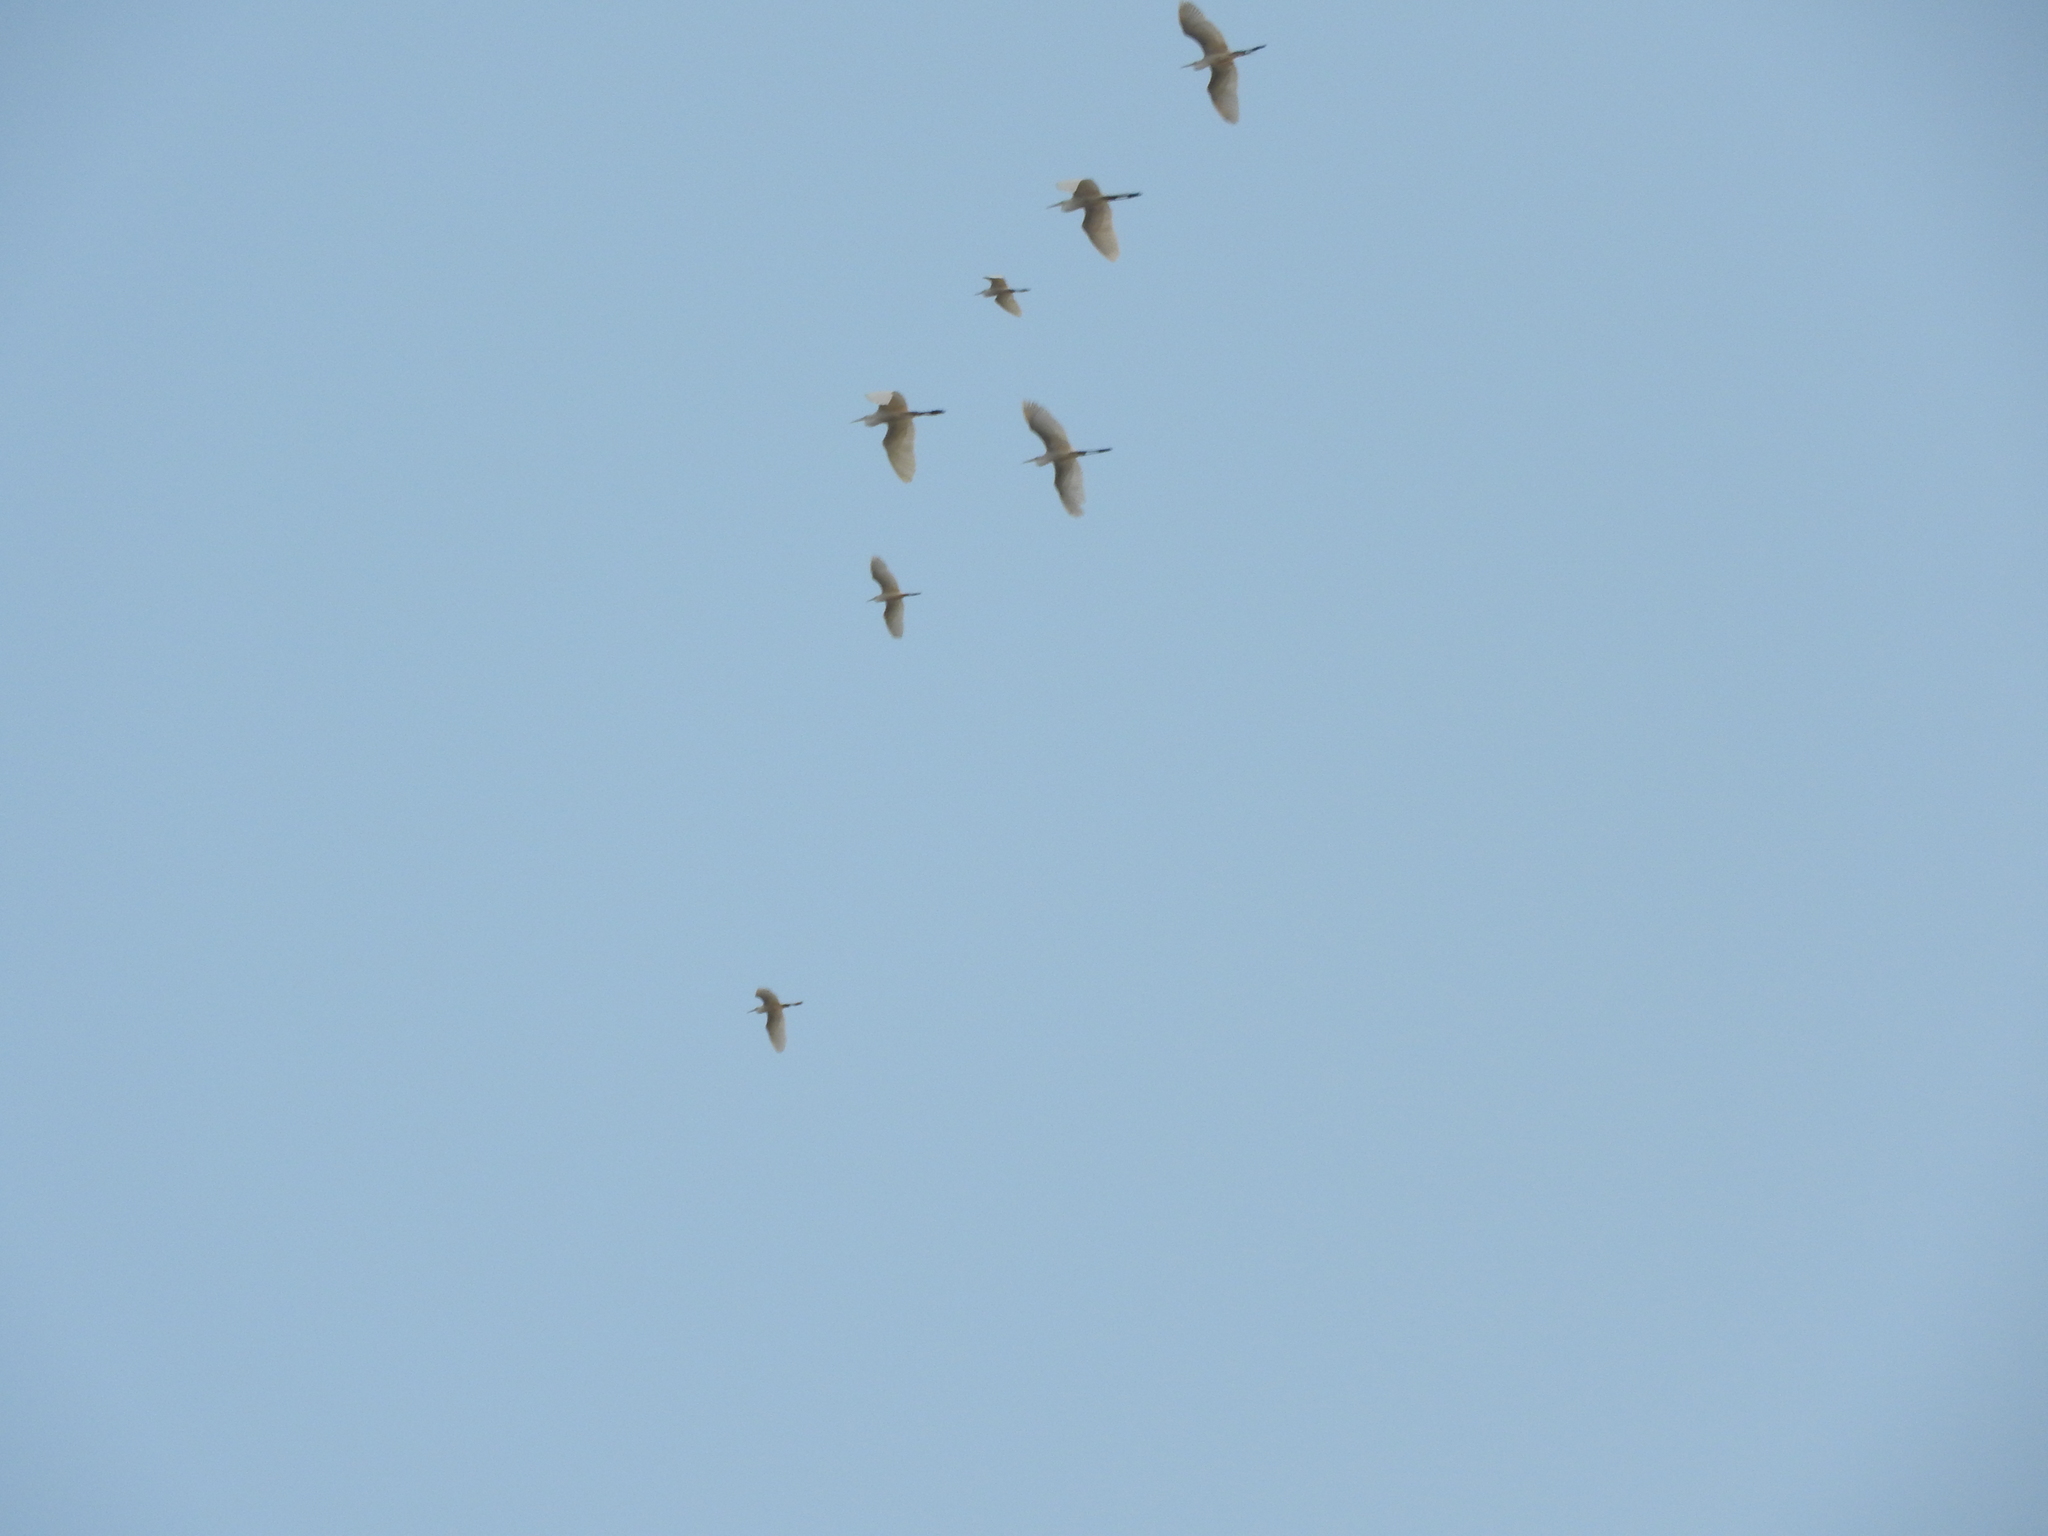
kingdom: Animalia
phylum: Chordata
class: Aves
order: Pelecaniformes
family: Ardeidae
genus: Egretta
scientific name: Egretta
